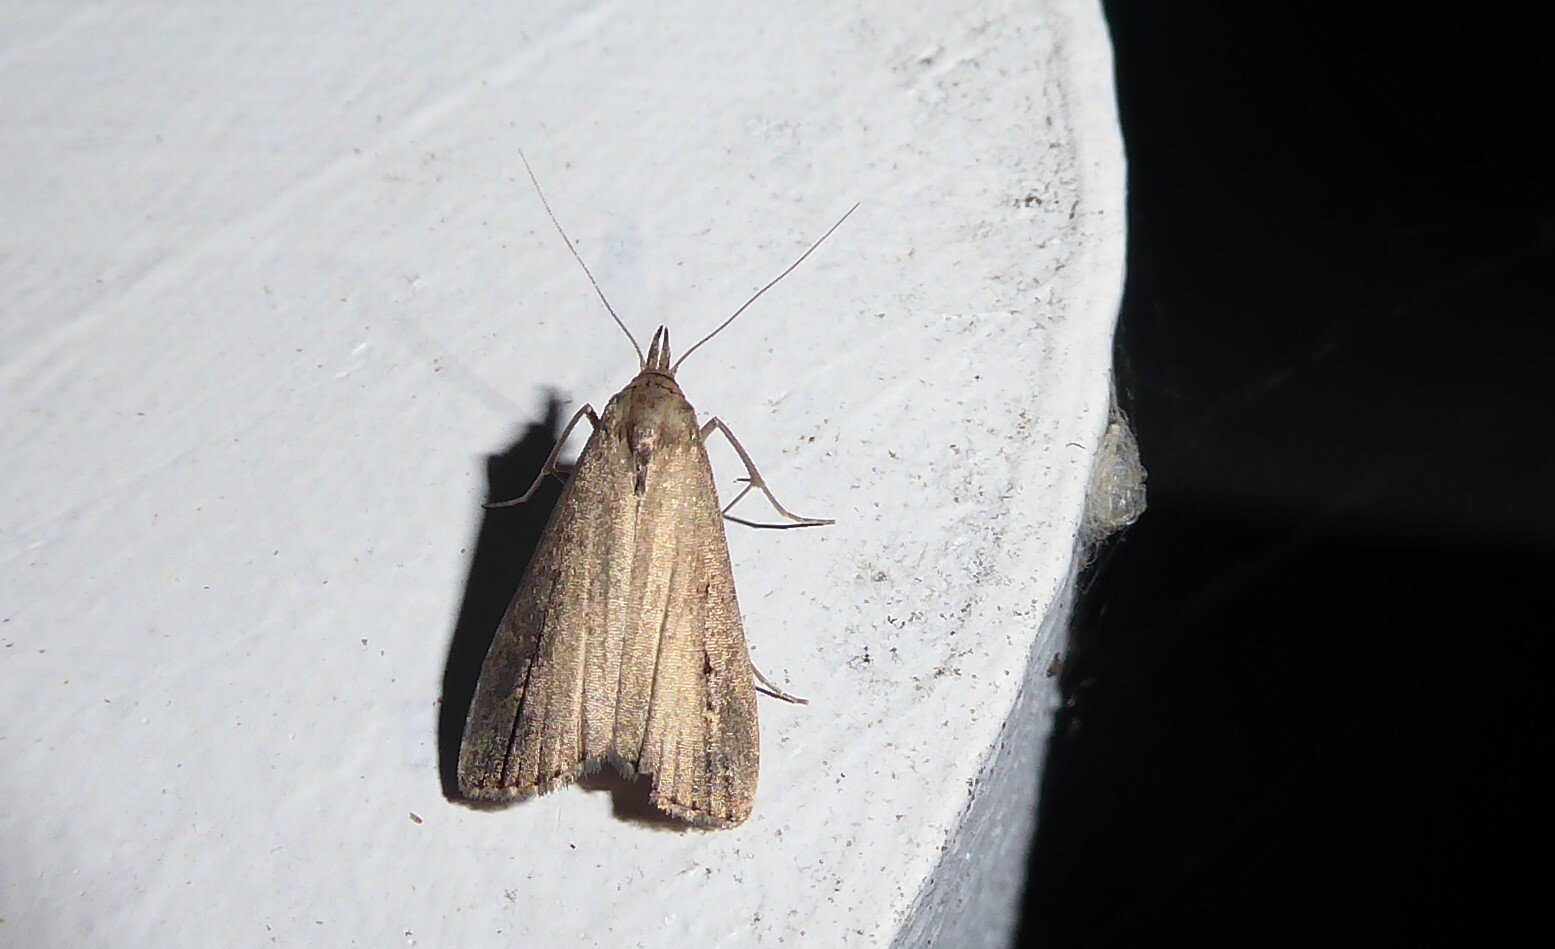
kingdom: Animalia
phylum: Arthropoda
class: Insecta
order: Lepidoptera
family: Erebidae
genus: Schrankia
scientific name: Schrankia costaestrigalis
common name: Pinion-streaked snout
